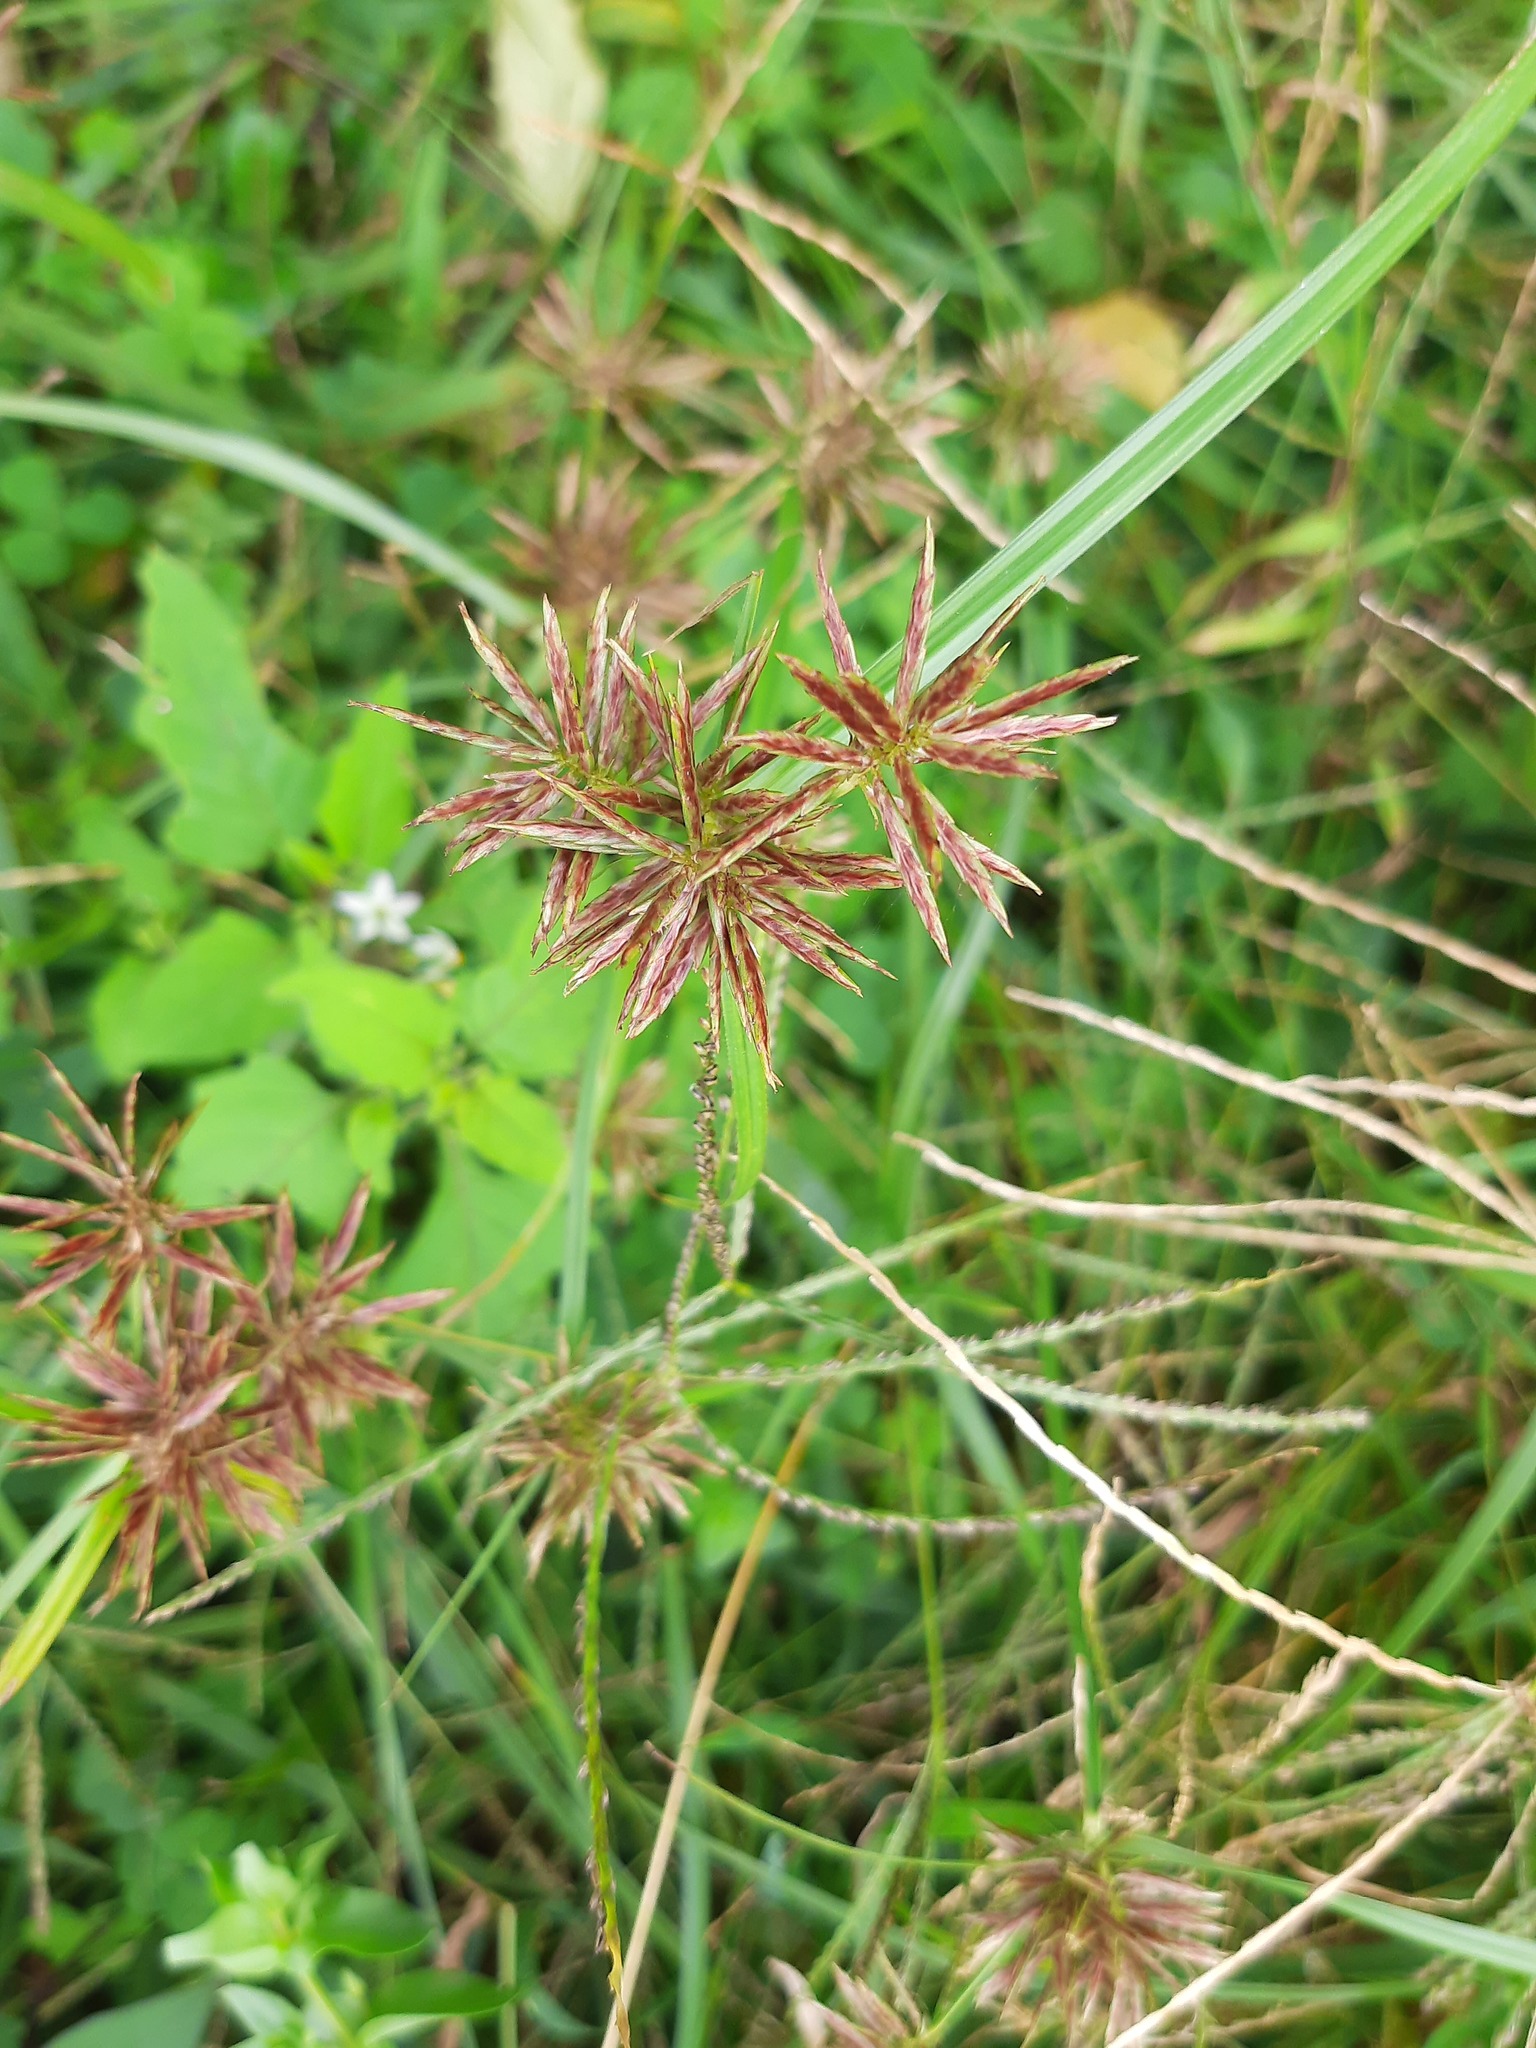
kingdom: Plantae
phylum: Tracheophyta
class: Liliopsida
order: Poales
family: Cyperaceae
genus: Cyperus
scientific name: Cyperus congestus
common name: Dense flat sedge
